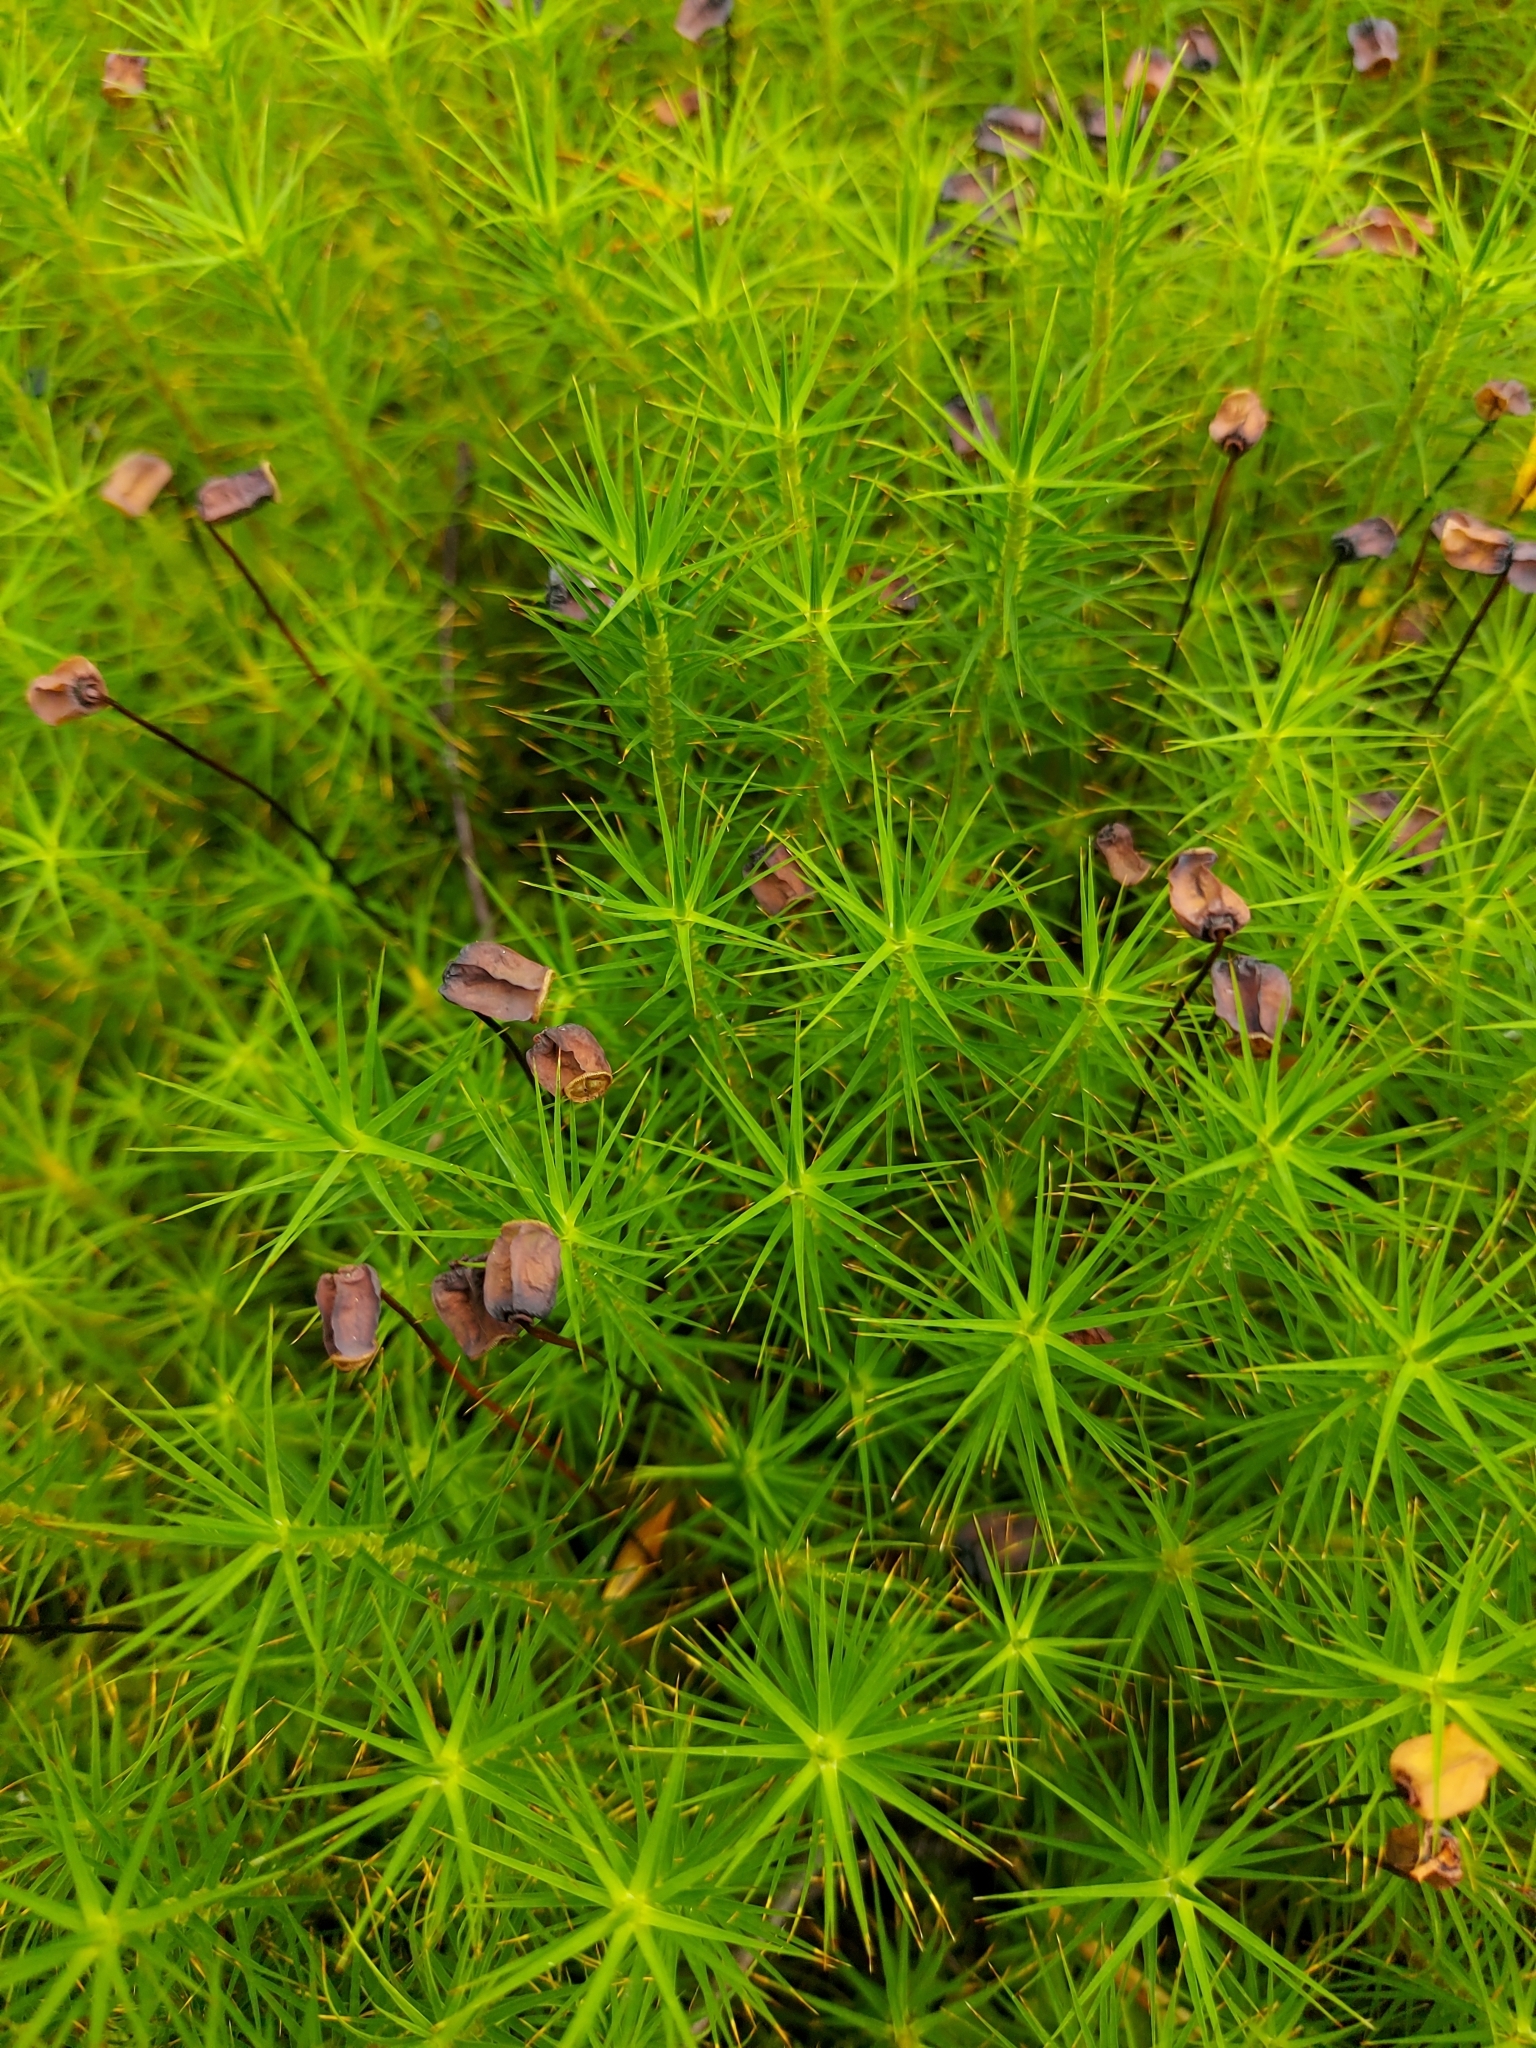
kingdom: Plantae
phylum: Bryophyta
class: Polytrichopsida
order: Polytrichales
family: Polytrichaceae
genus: Polytrichum
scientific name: Polytrichum commune
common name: Common haircap
